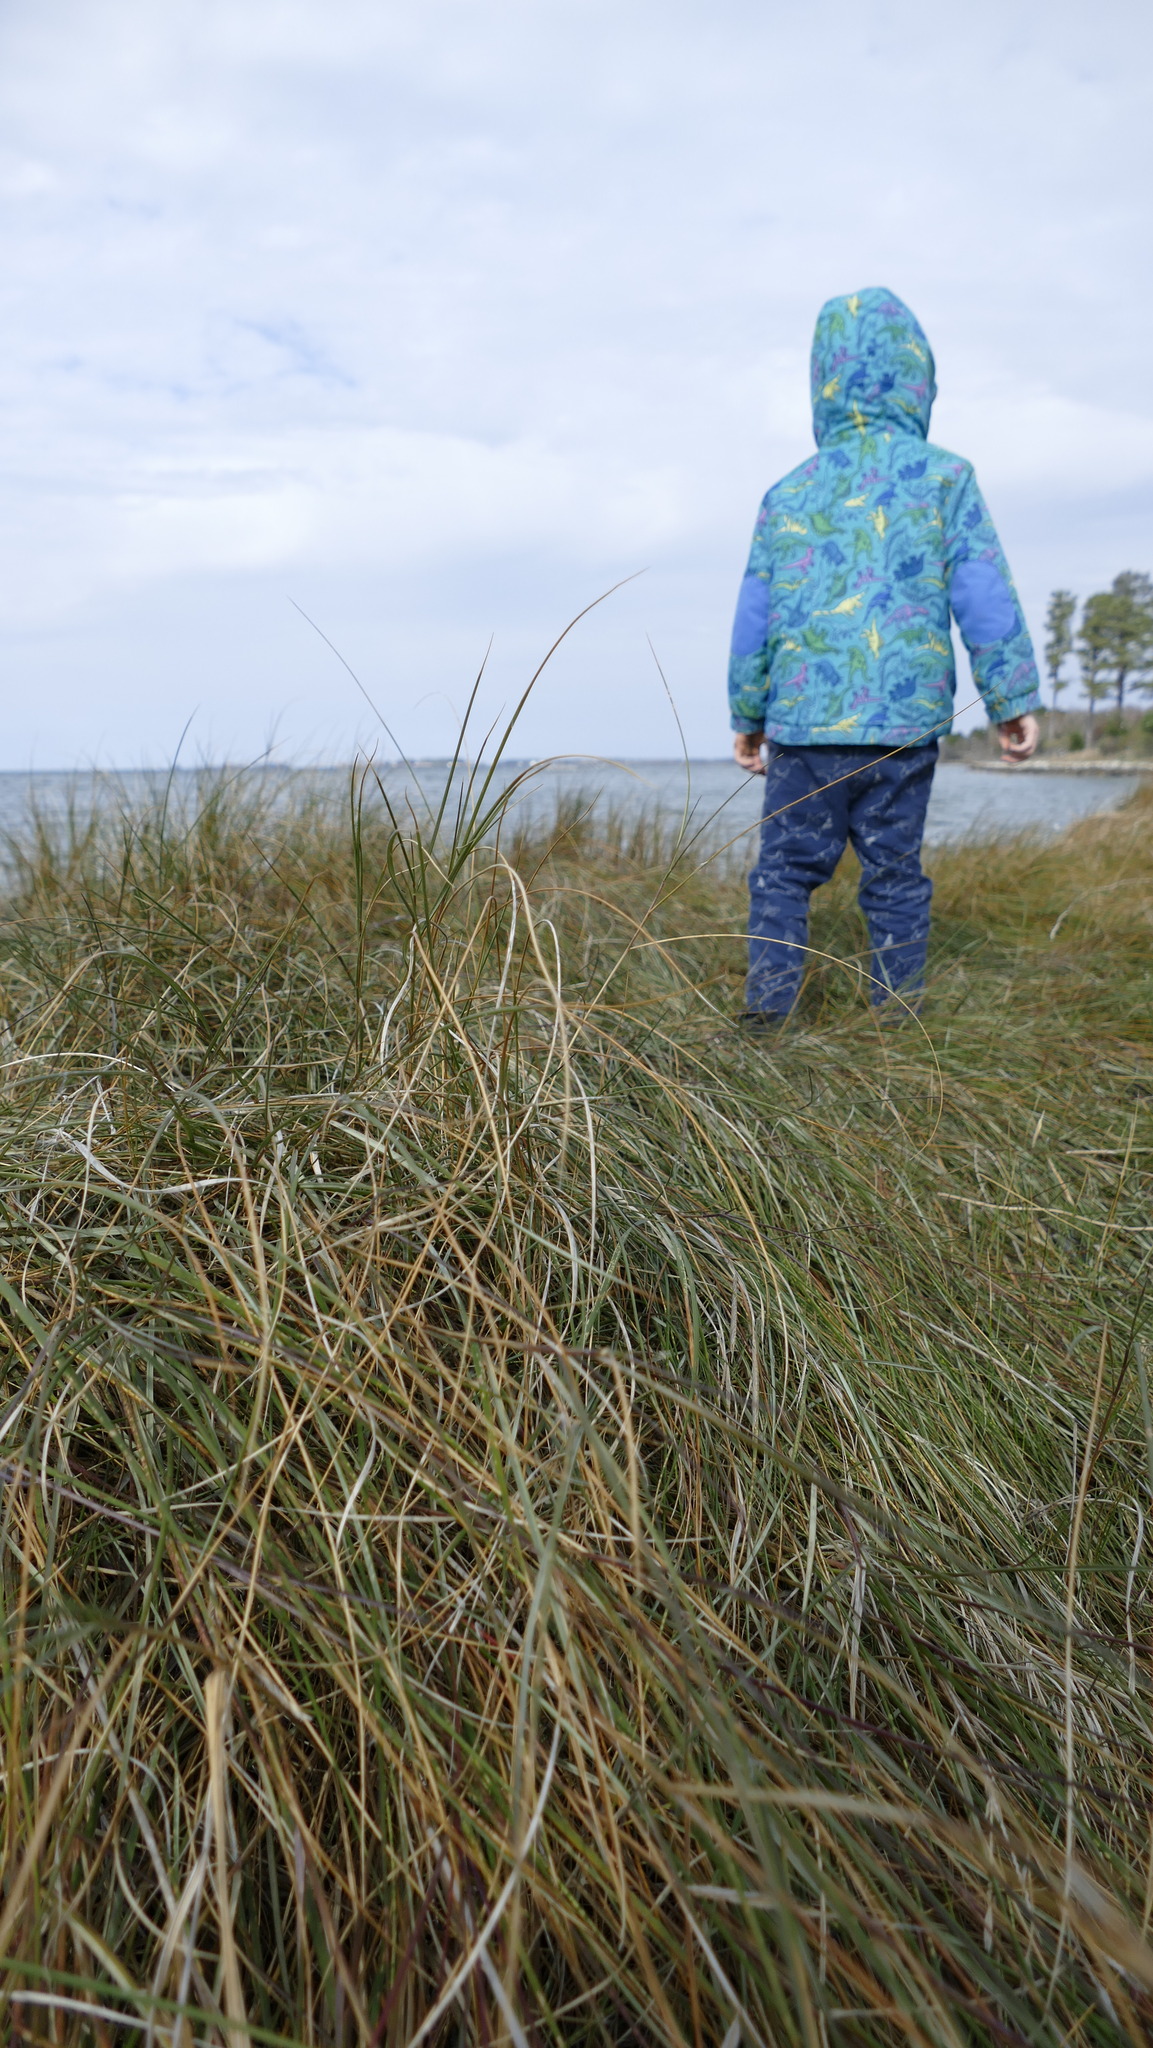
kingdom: Plantae
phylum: Tracheophyta
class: Liliopsida
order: Poales
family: Poaceae
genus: Sporobolus
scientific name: Sporobolus pumilus
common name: Highwater grass
